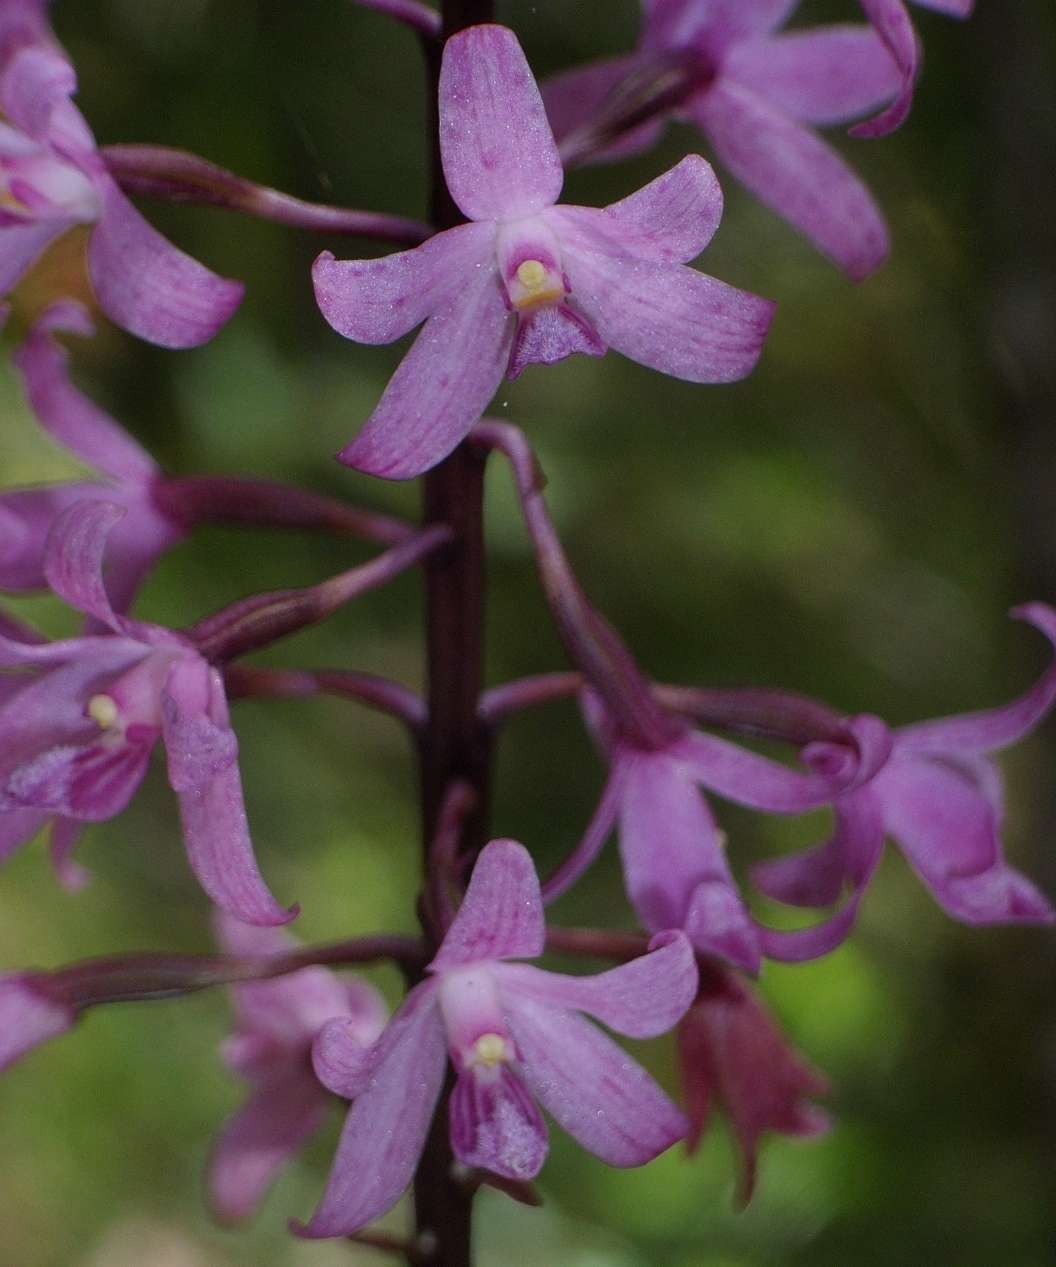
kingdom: Plantae
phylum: Tracheophyta
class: Liliopsida
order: Asparagales
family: Orchidaceae
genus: Dipodium
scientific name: Dipodium roseum
